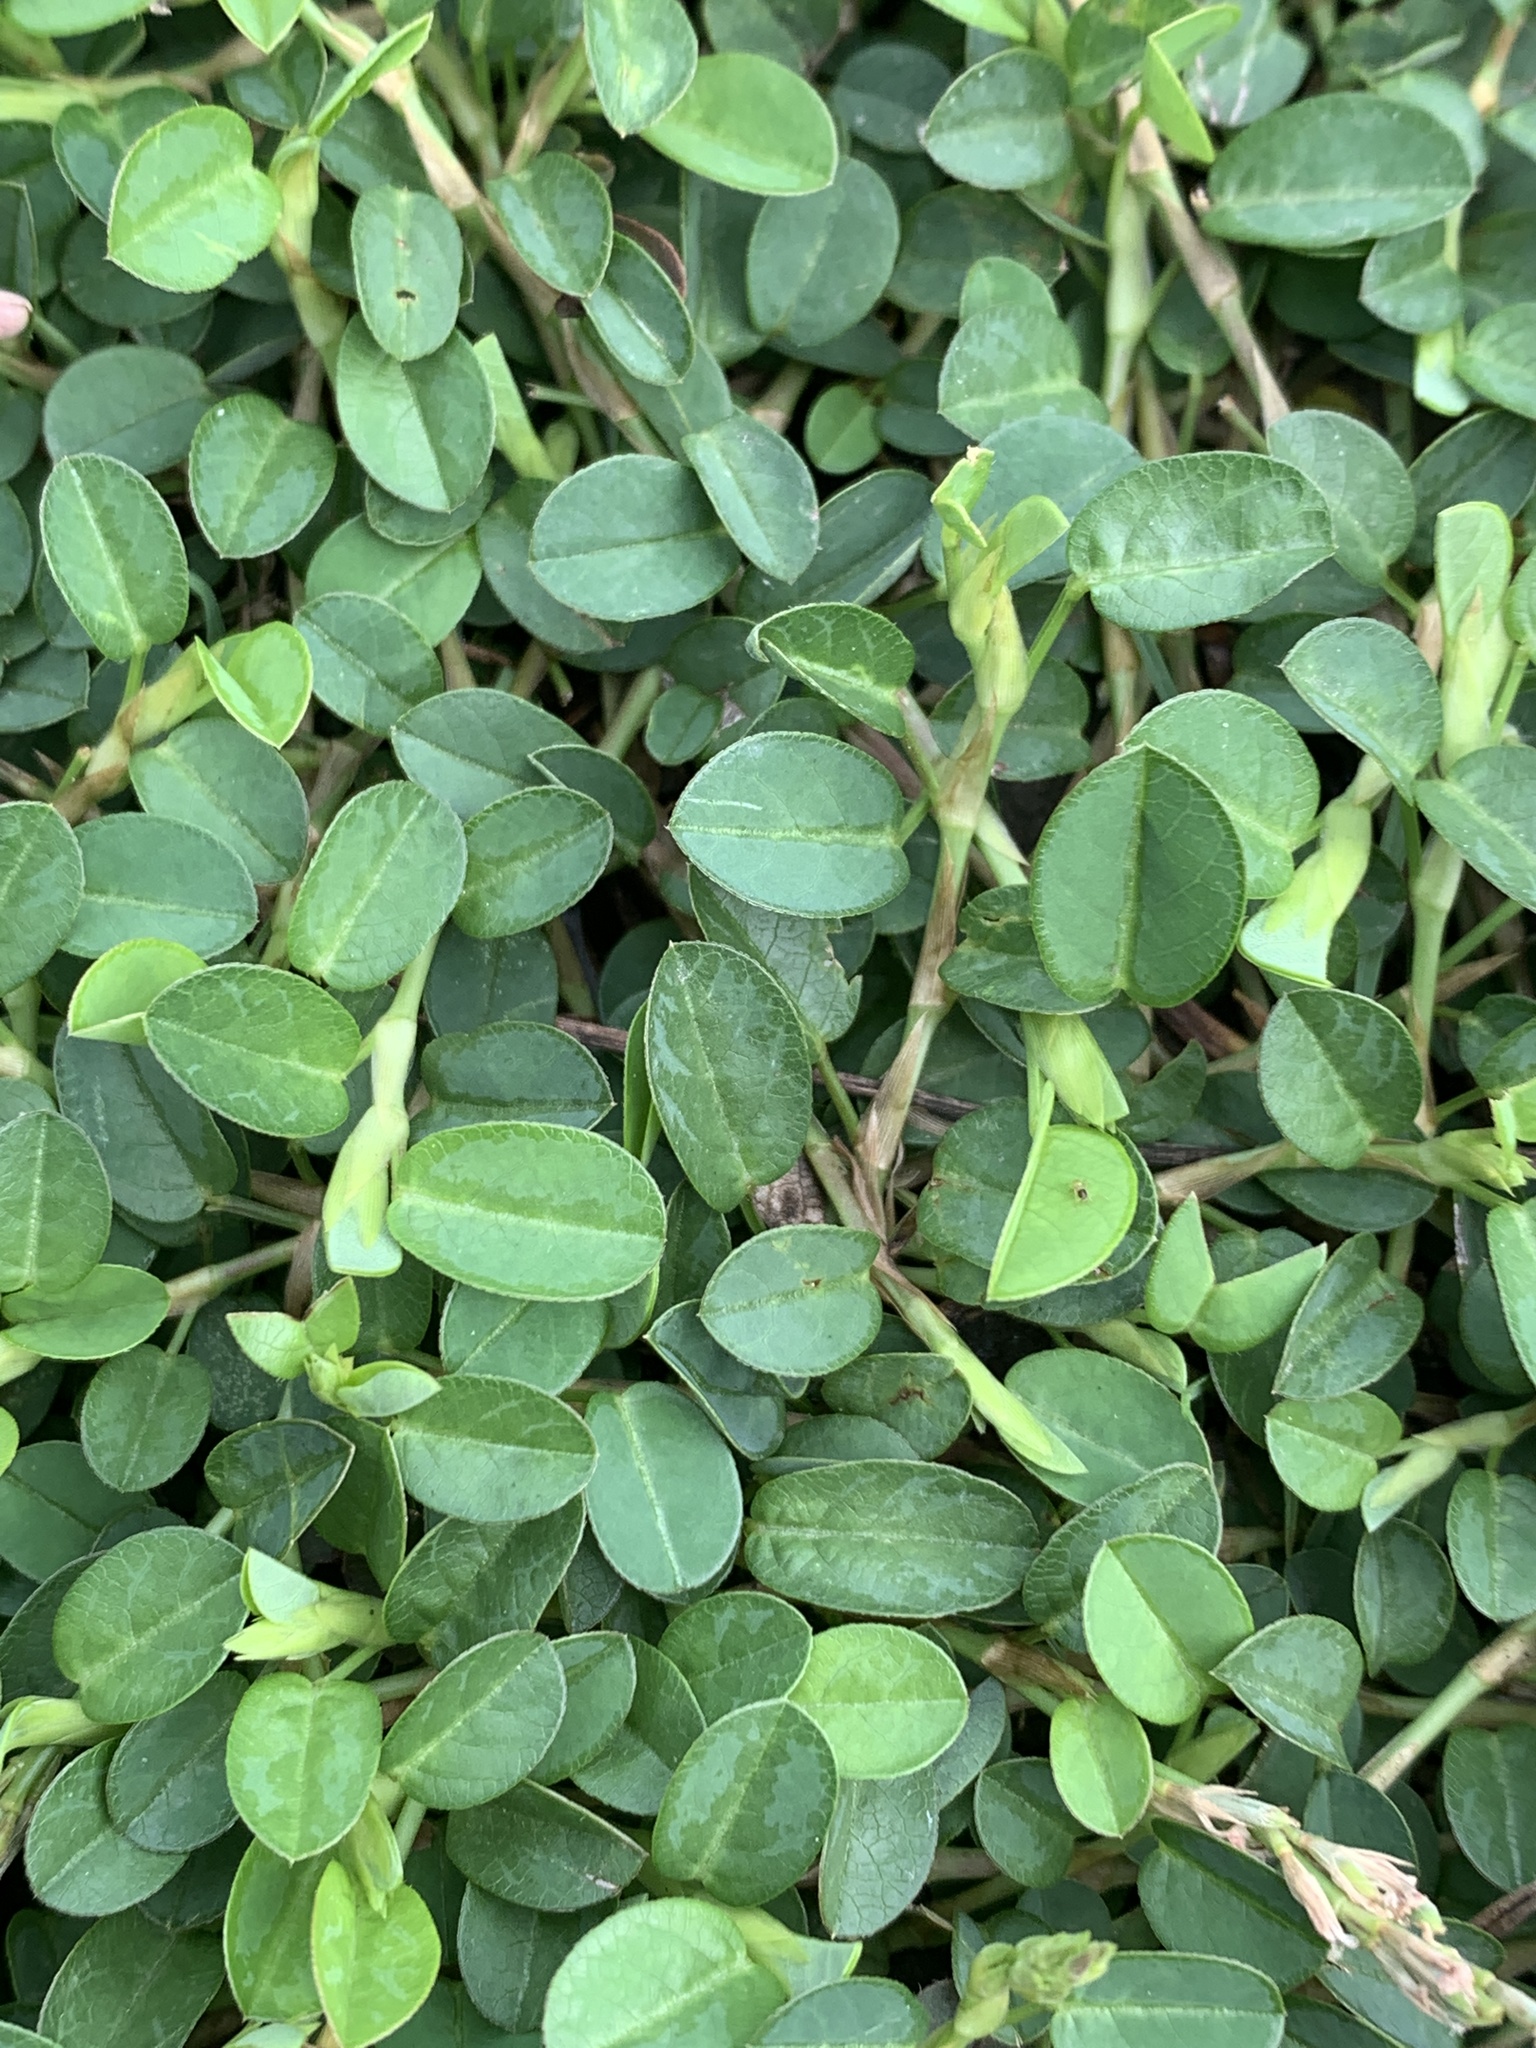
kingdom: Plantae
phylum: Tracheophyta
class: Magnoliopsida
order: Fabales
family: Fabaceae
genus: Alysicarpus
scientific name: Alysicarpus vaginalis
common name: White moneywort
